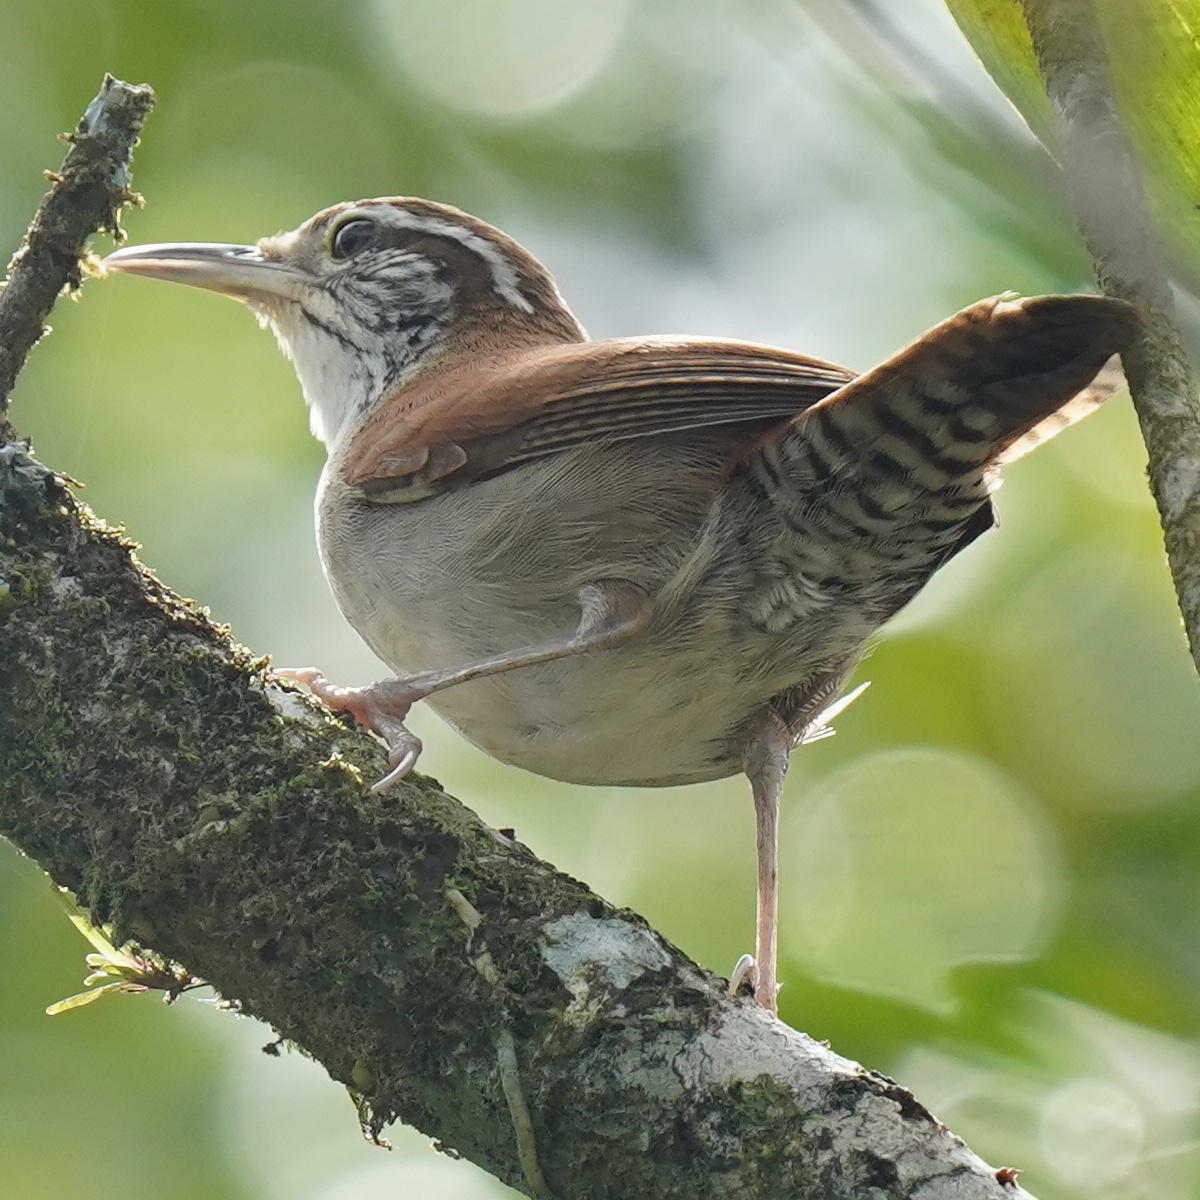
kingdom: Animalia
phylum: Chordata
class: Aves
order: Passeriformes
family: Troglodytidae
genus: Thryophilus
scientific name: Thryophilus rufalbus
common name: Rufous-and-white wren
